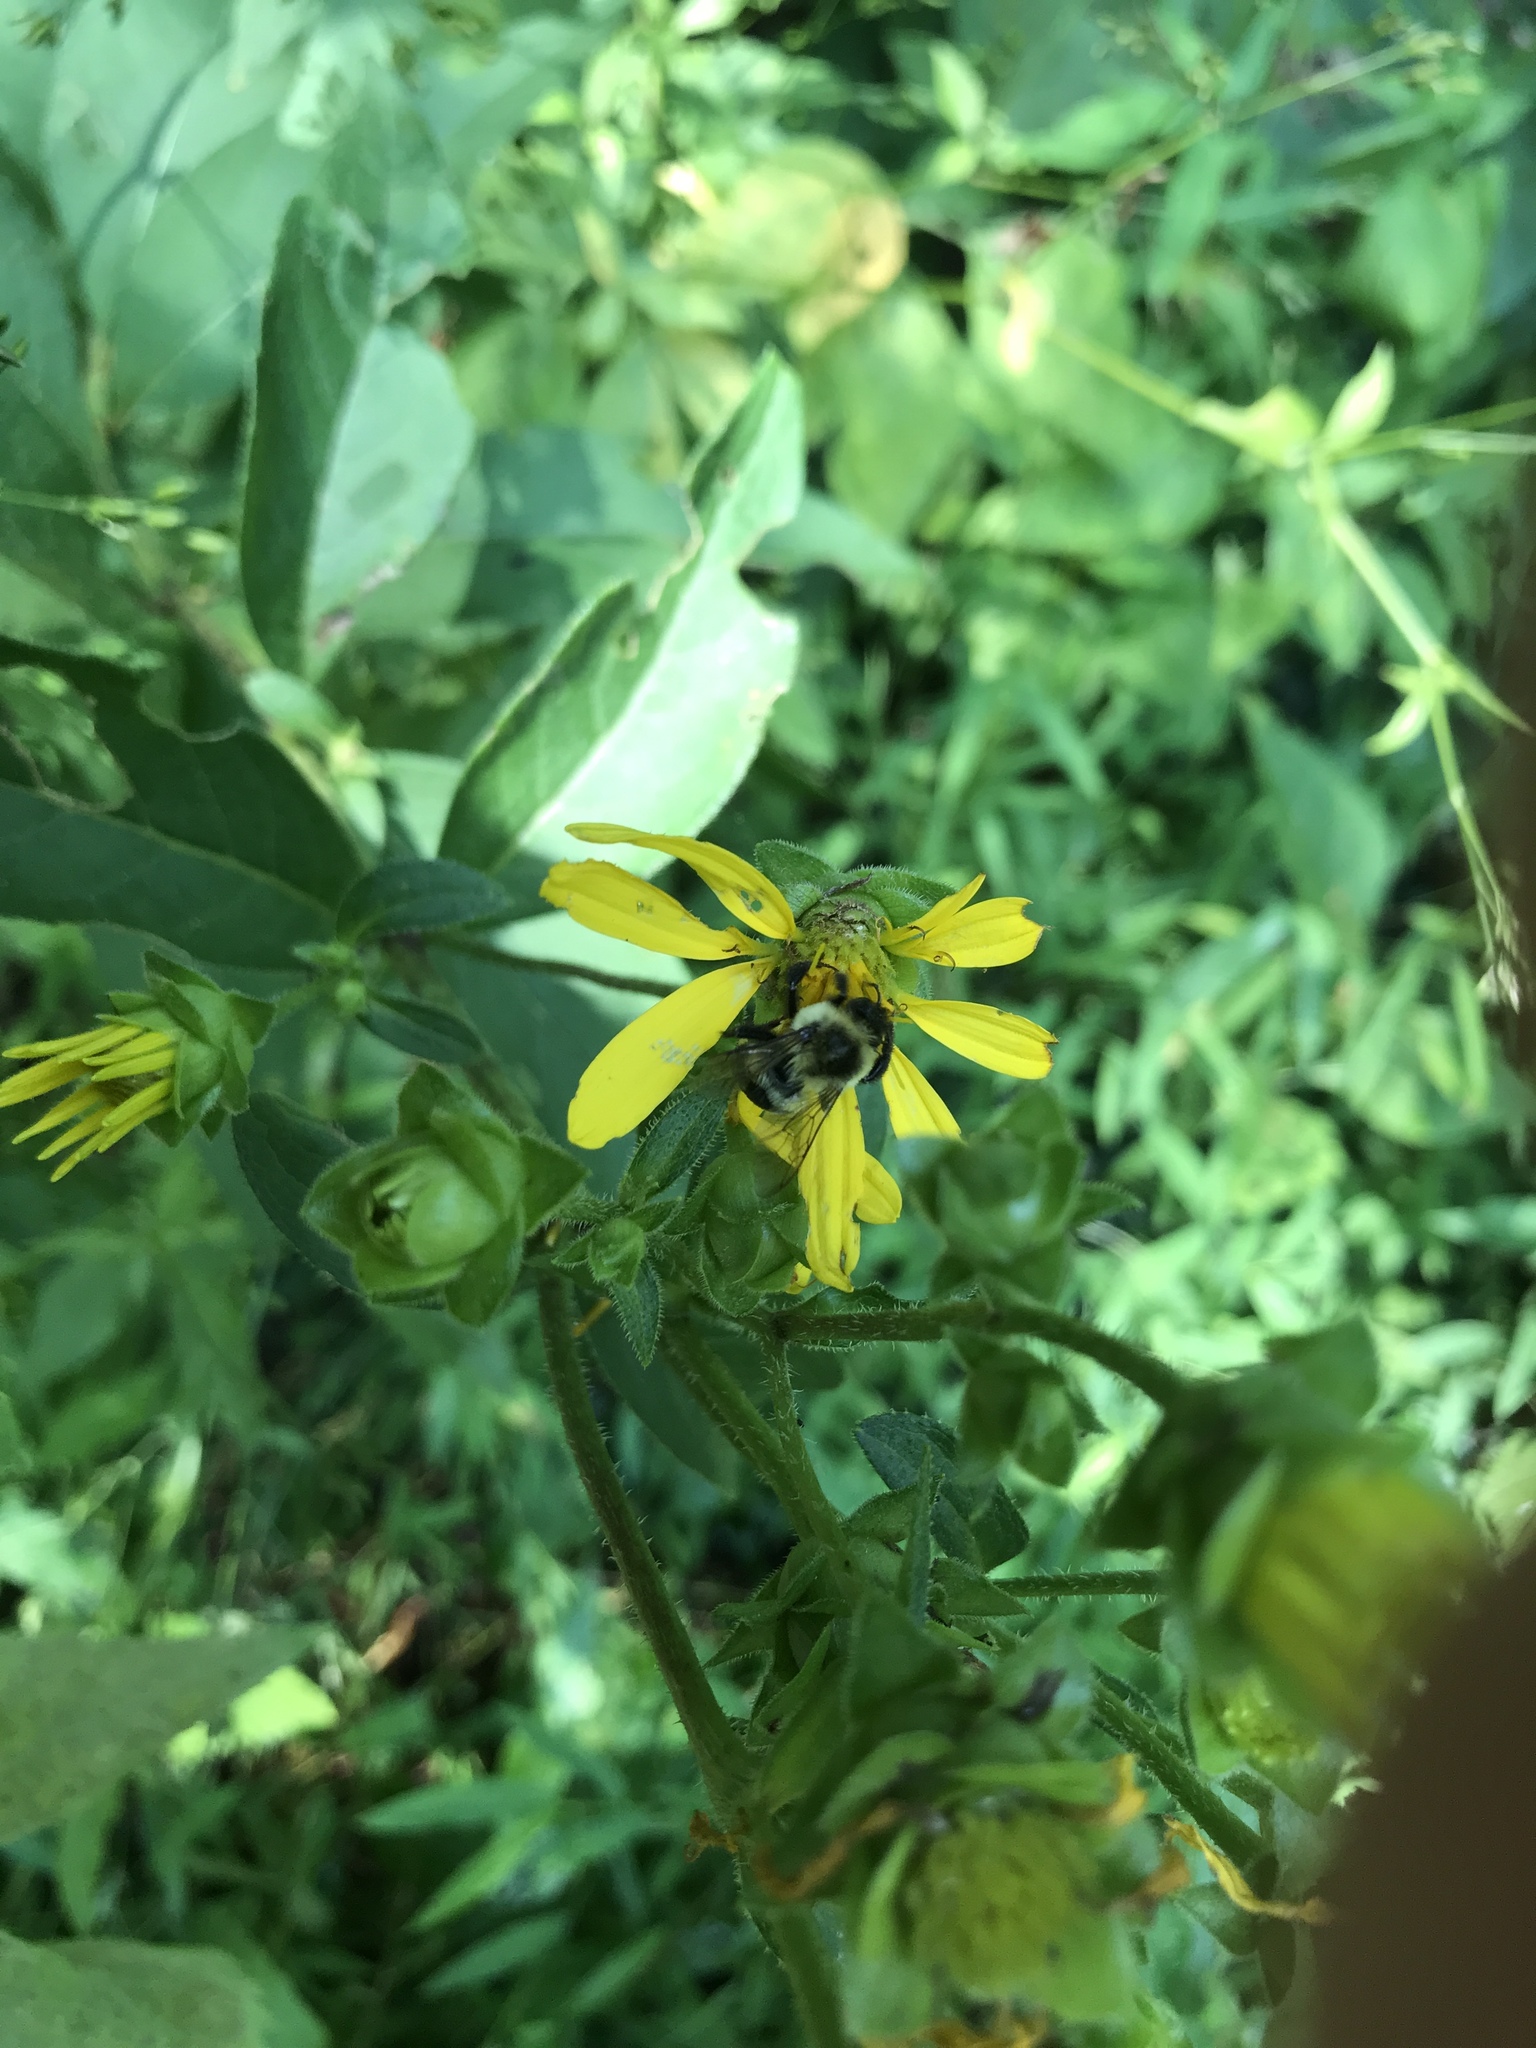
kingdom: Animalia
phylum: Arthropoda
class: Insecta
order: Hymenoptera
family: Apidae
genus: Bombus
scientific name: Bombus impatiens
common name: Common eastern bumble bee
